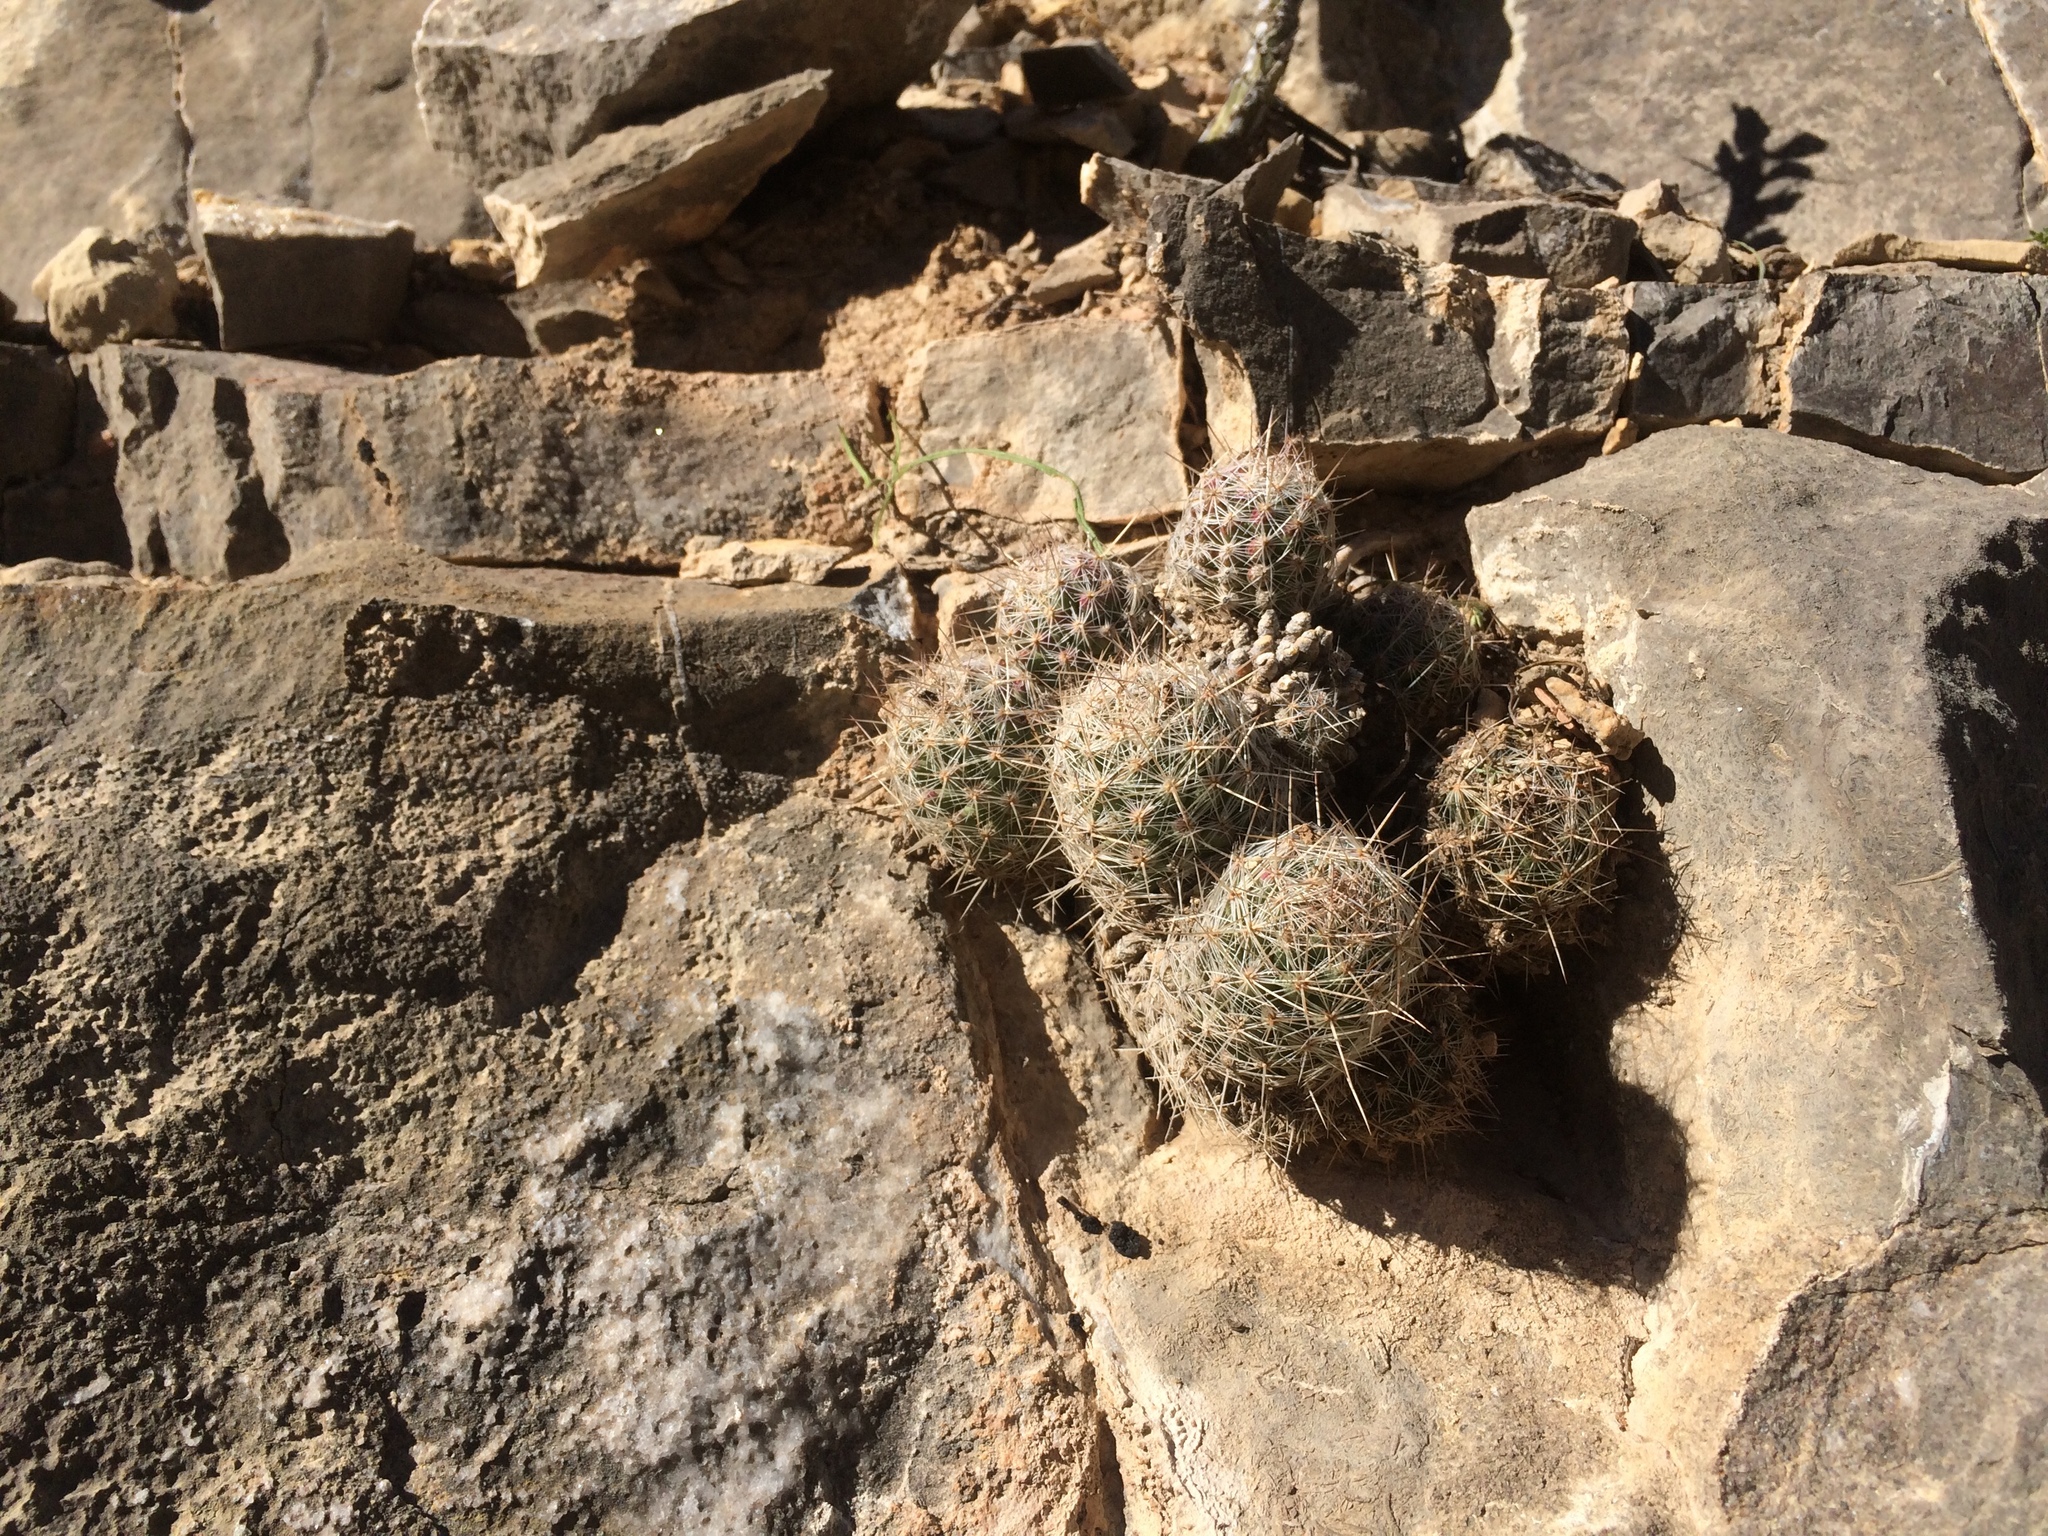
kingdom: Plantae
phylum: Tracheophyta
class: Magnoliopsida
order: Caryophyllales
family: Cactaceae
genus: Pelecyphora
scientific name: Pelecyphora tuberculosa
